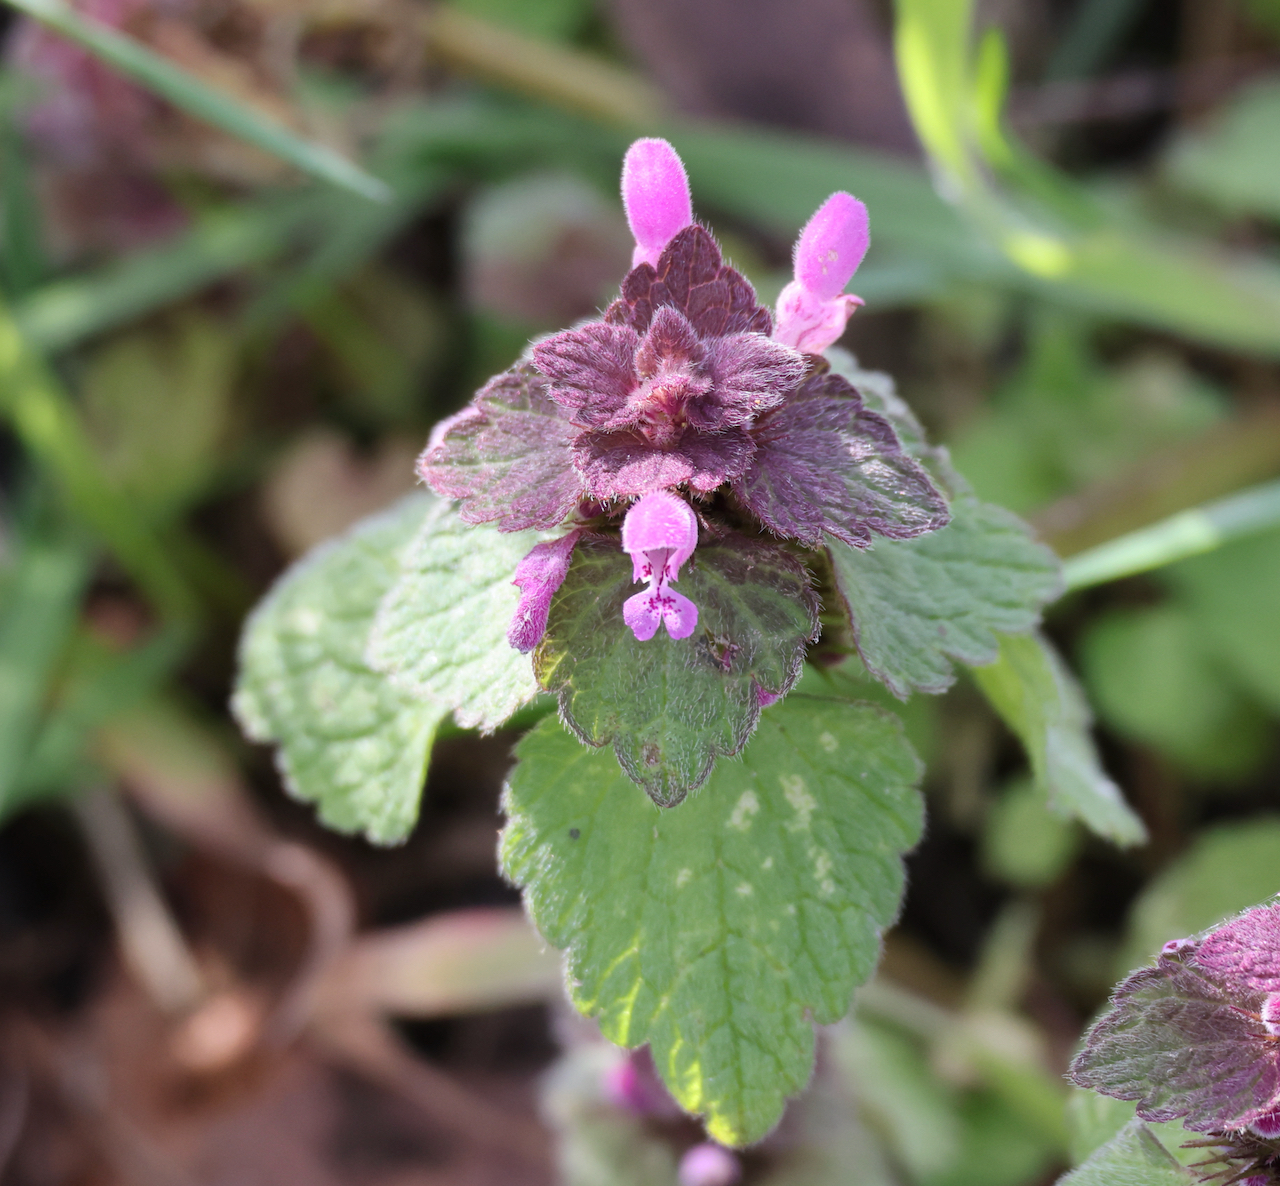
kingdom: Plantae
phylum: Tracheophyta
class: Magnoliopsida
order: Lamiales
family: Lamiaceae
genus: Lamium
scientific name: Lamium purpureum
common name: Red dead-nettle
